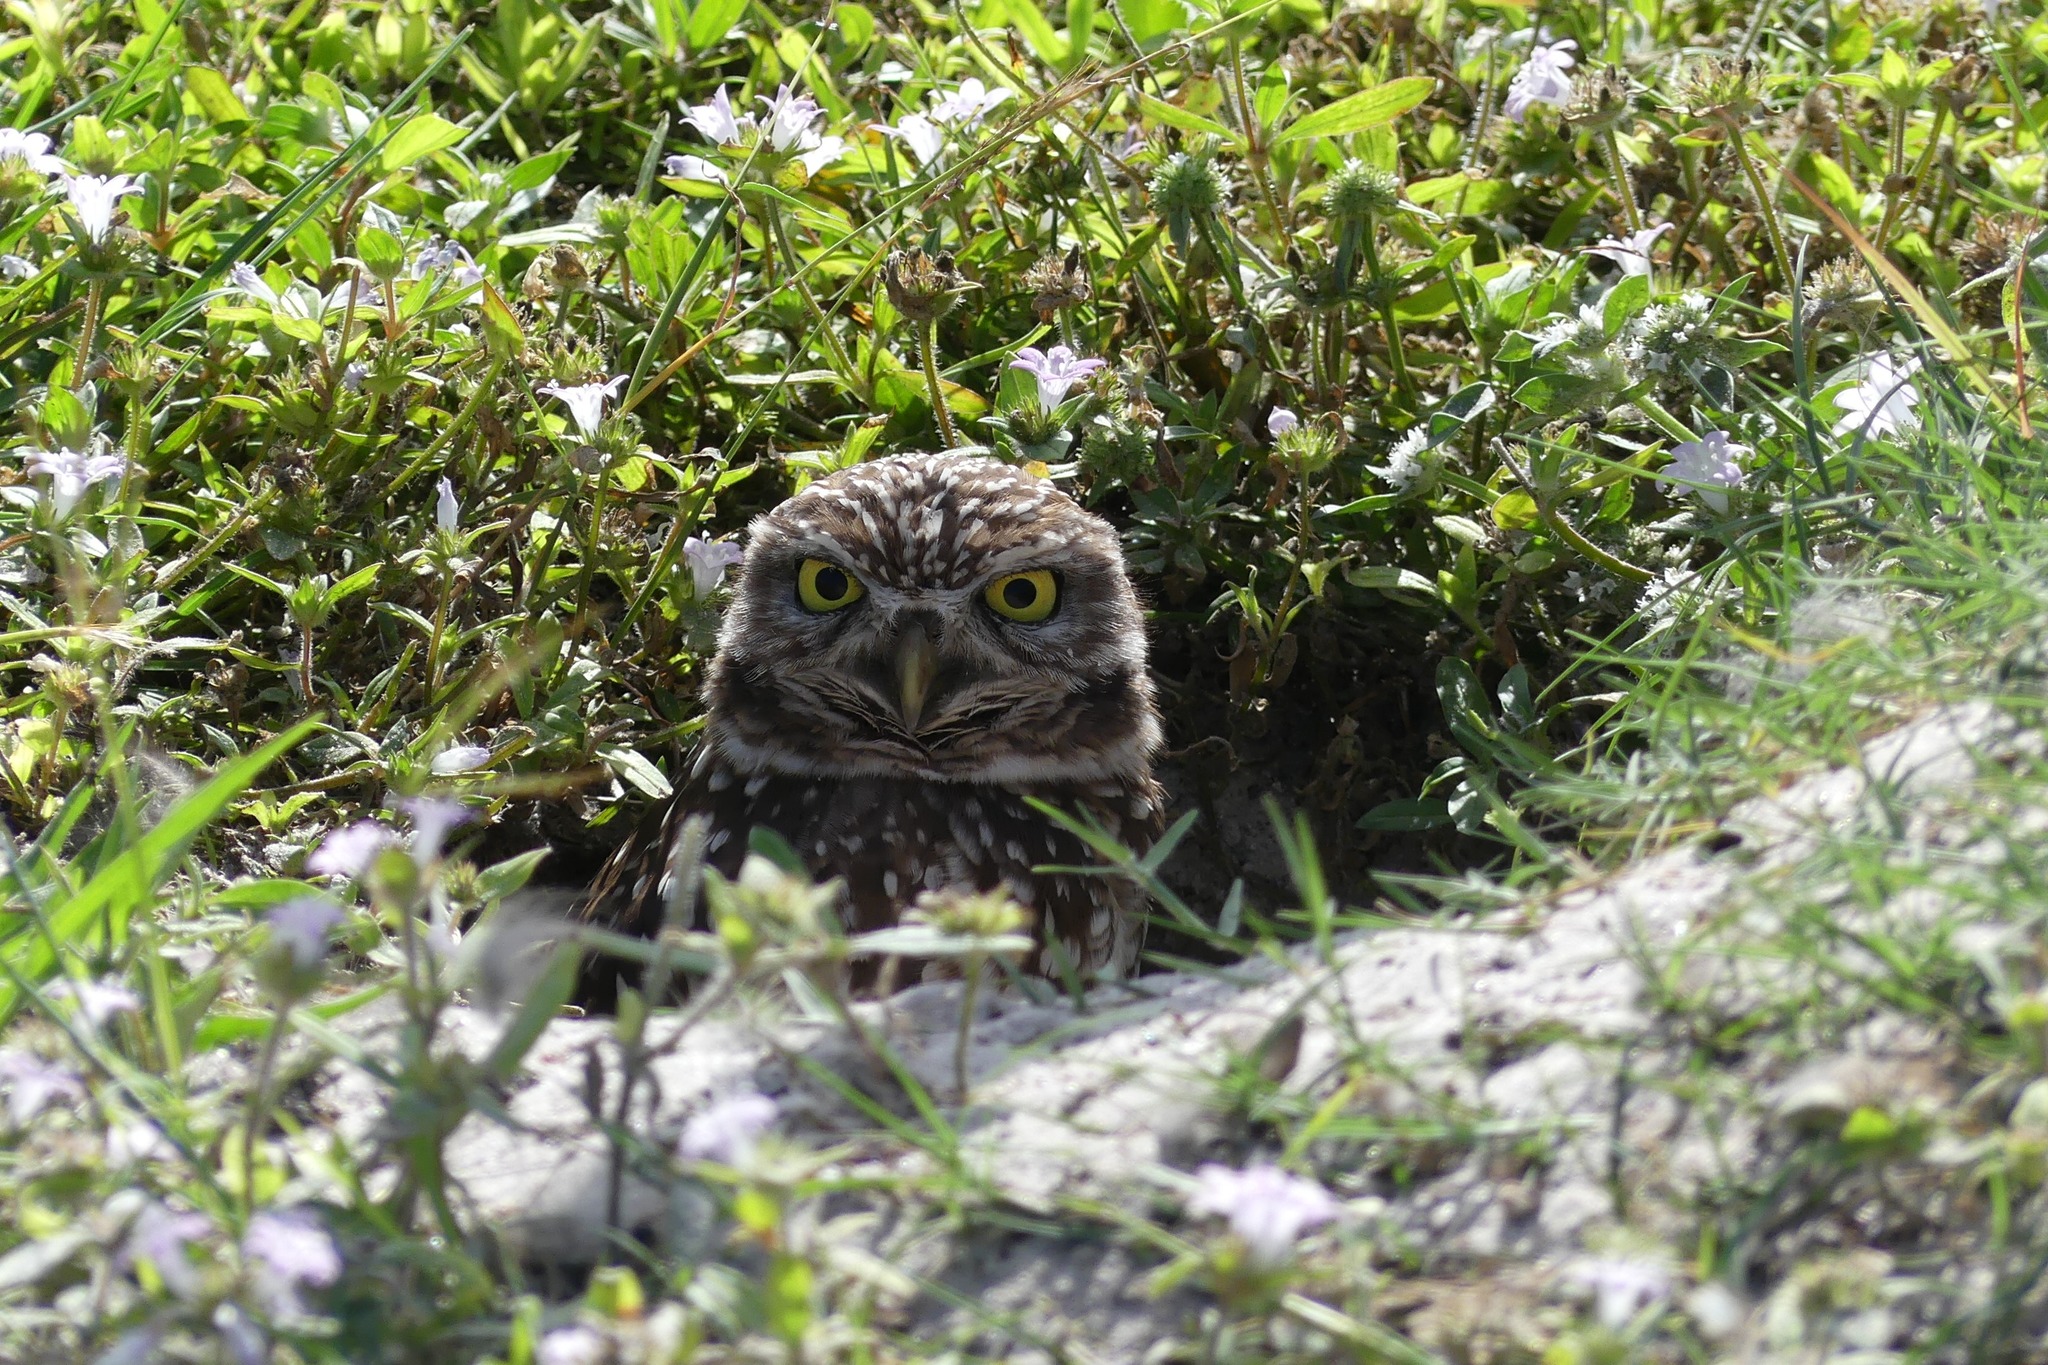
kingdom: Animalia
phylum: Chordata
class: Aves
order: Strigiformes
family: Strigidae
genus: Athene
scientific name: Athene cunicularia
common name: Burrowing owl
